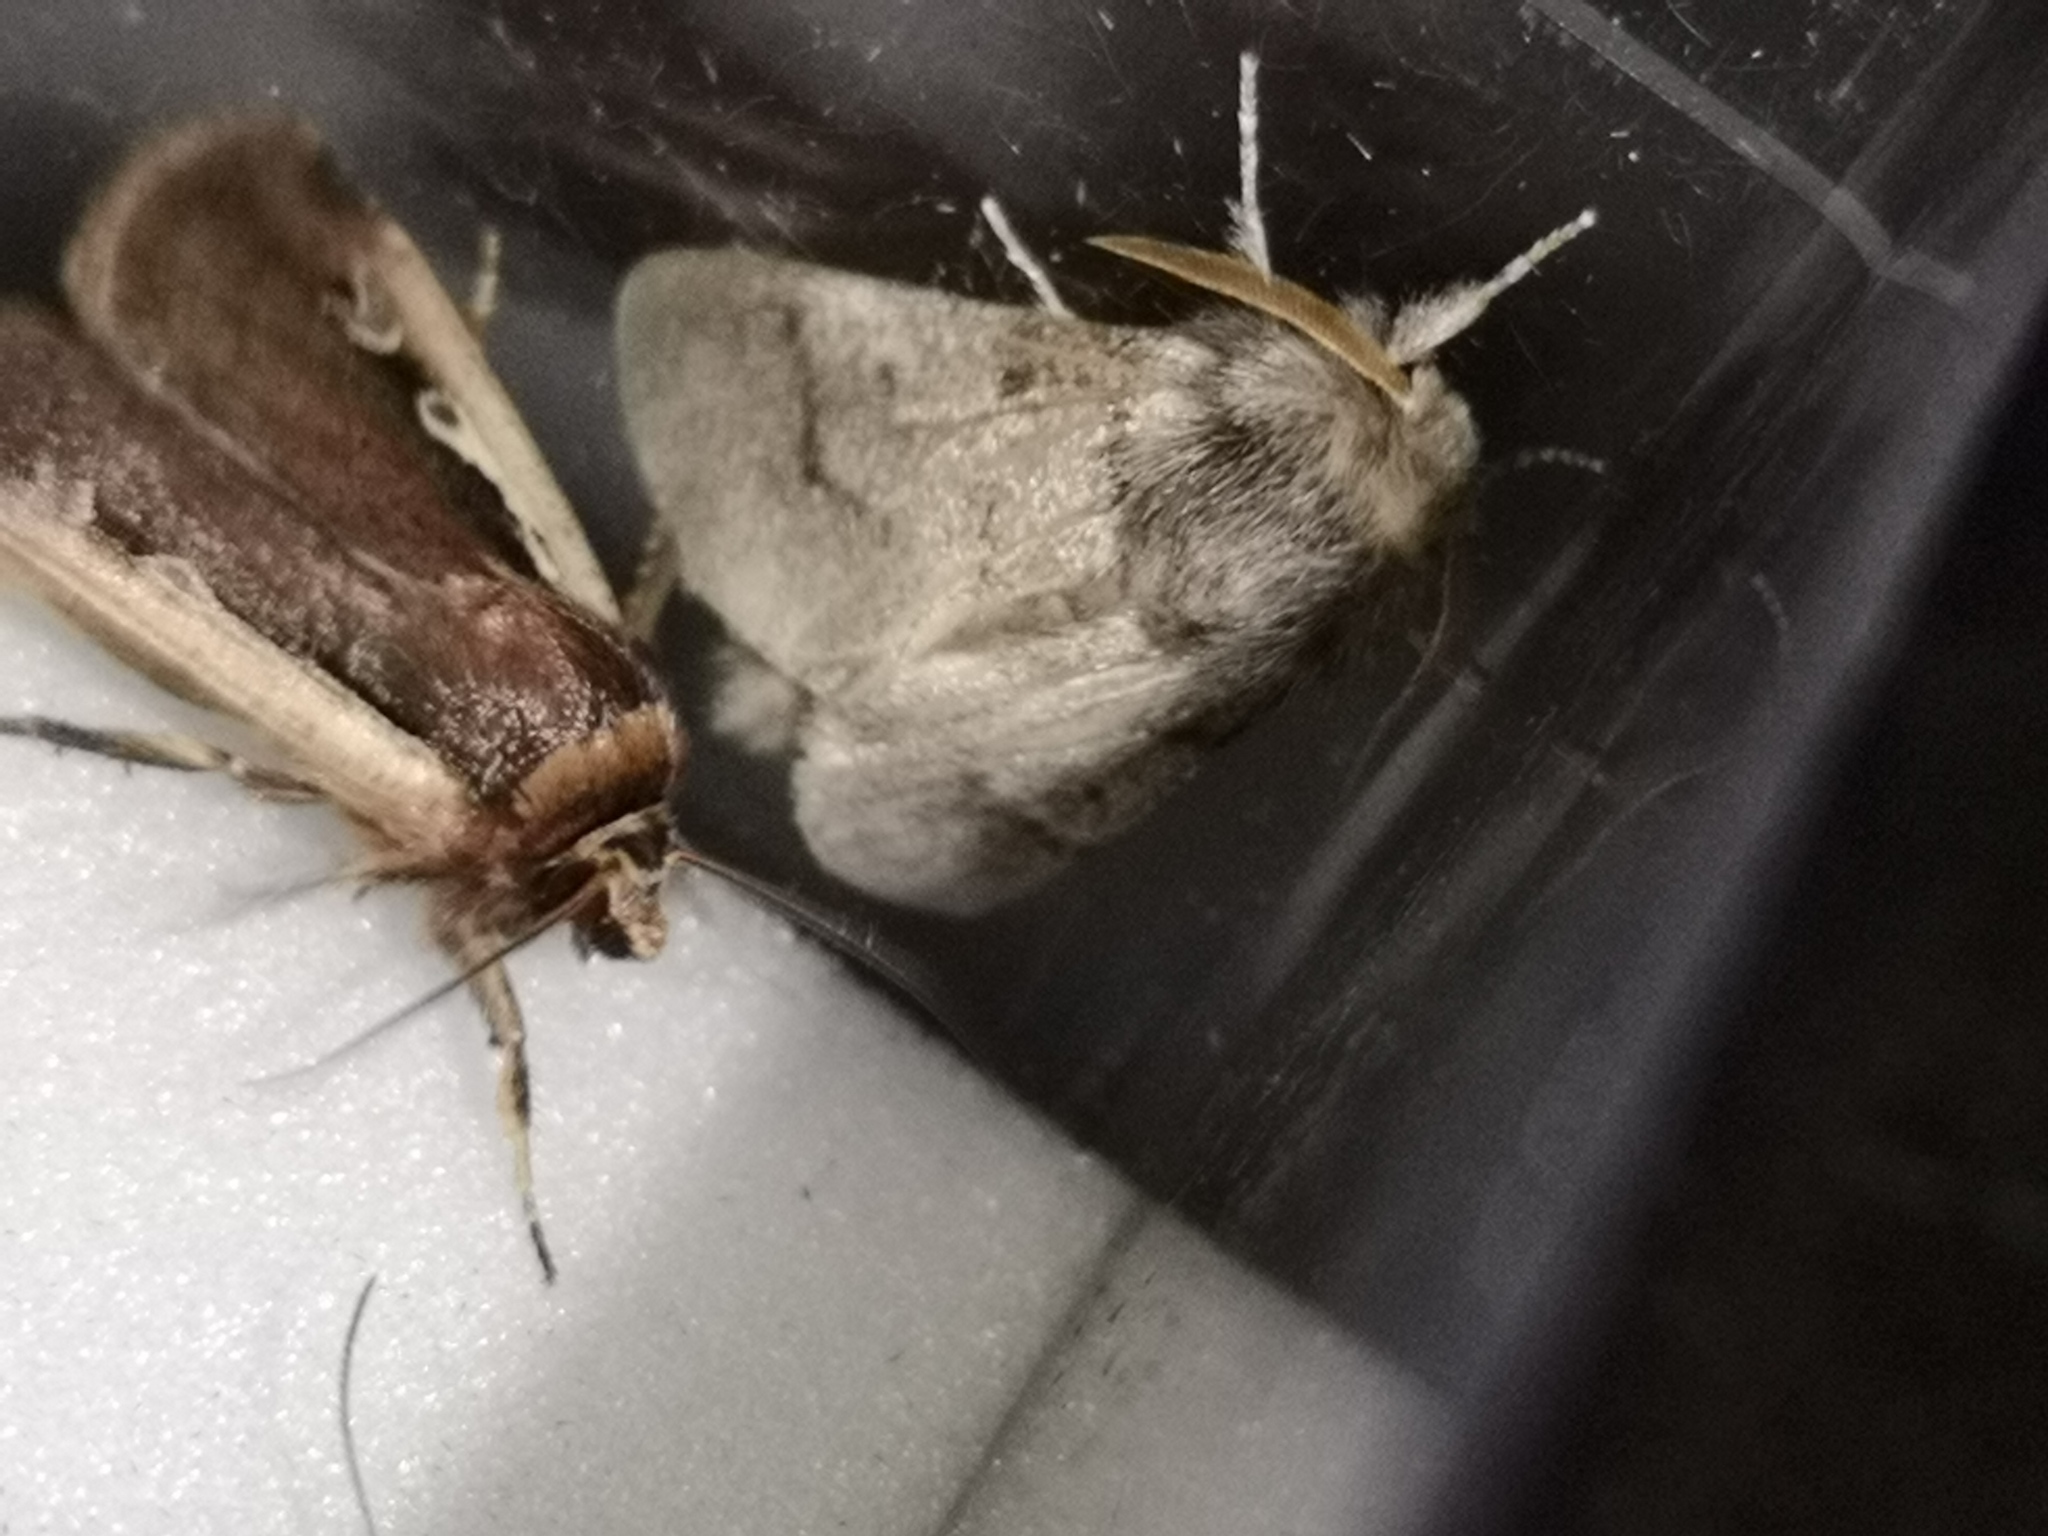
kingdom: Animalia
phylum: Arthropoda
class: Insecta
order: Lepidoptera
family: Notodontidae
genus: Thaumetopoea
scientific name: Thaumetopoea processionea
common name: Oak processionea
